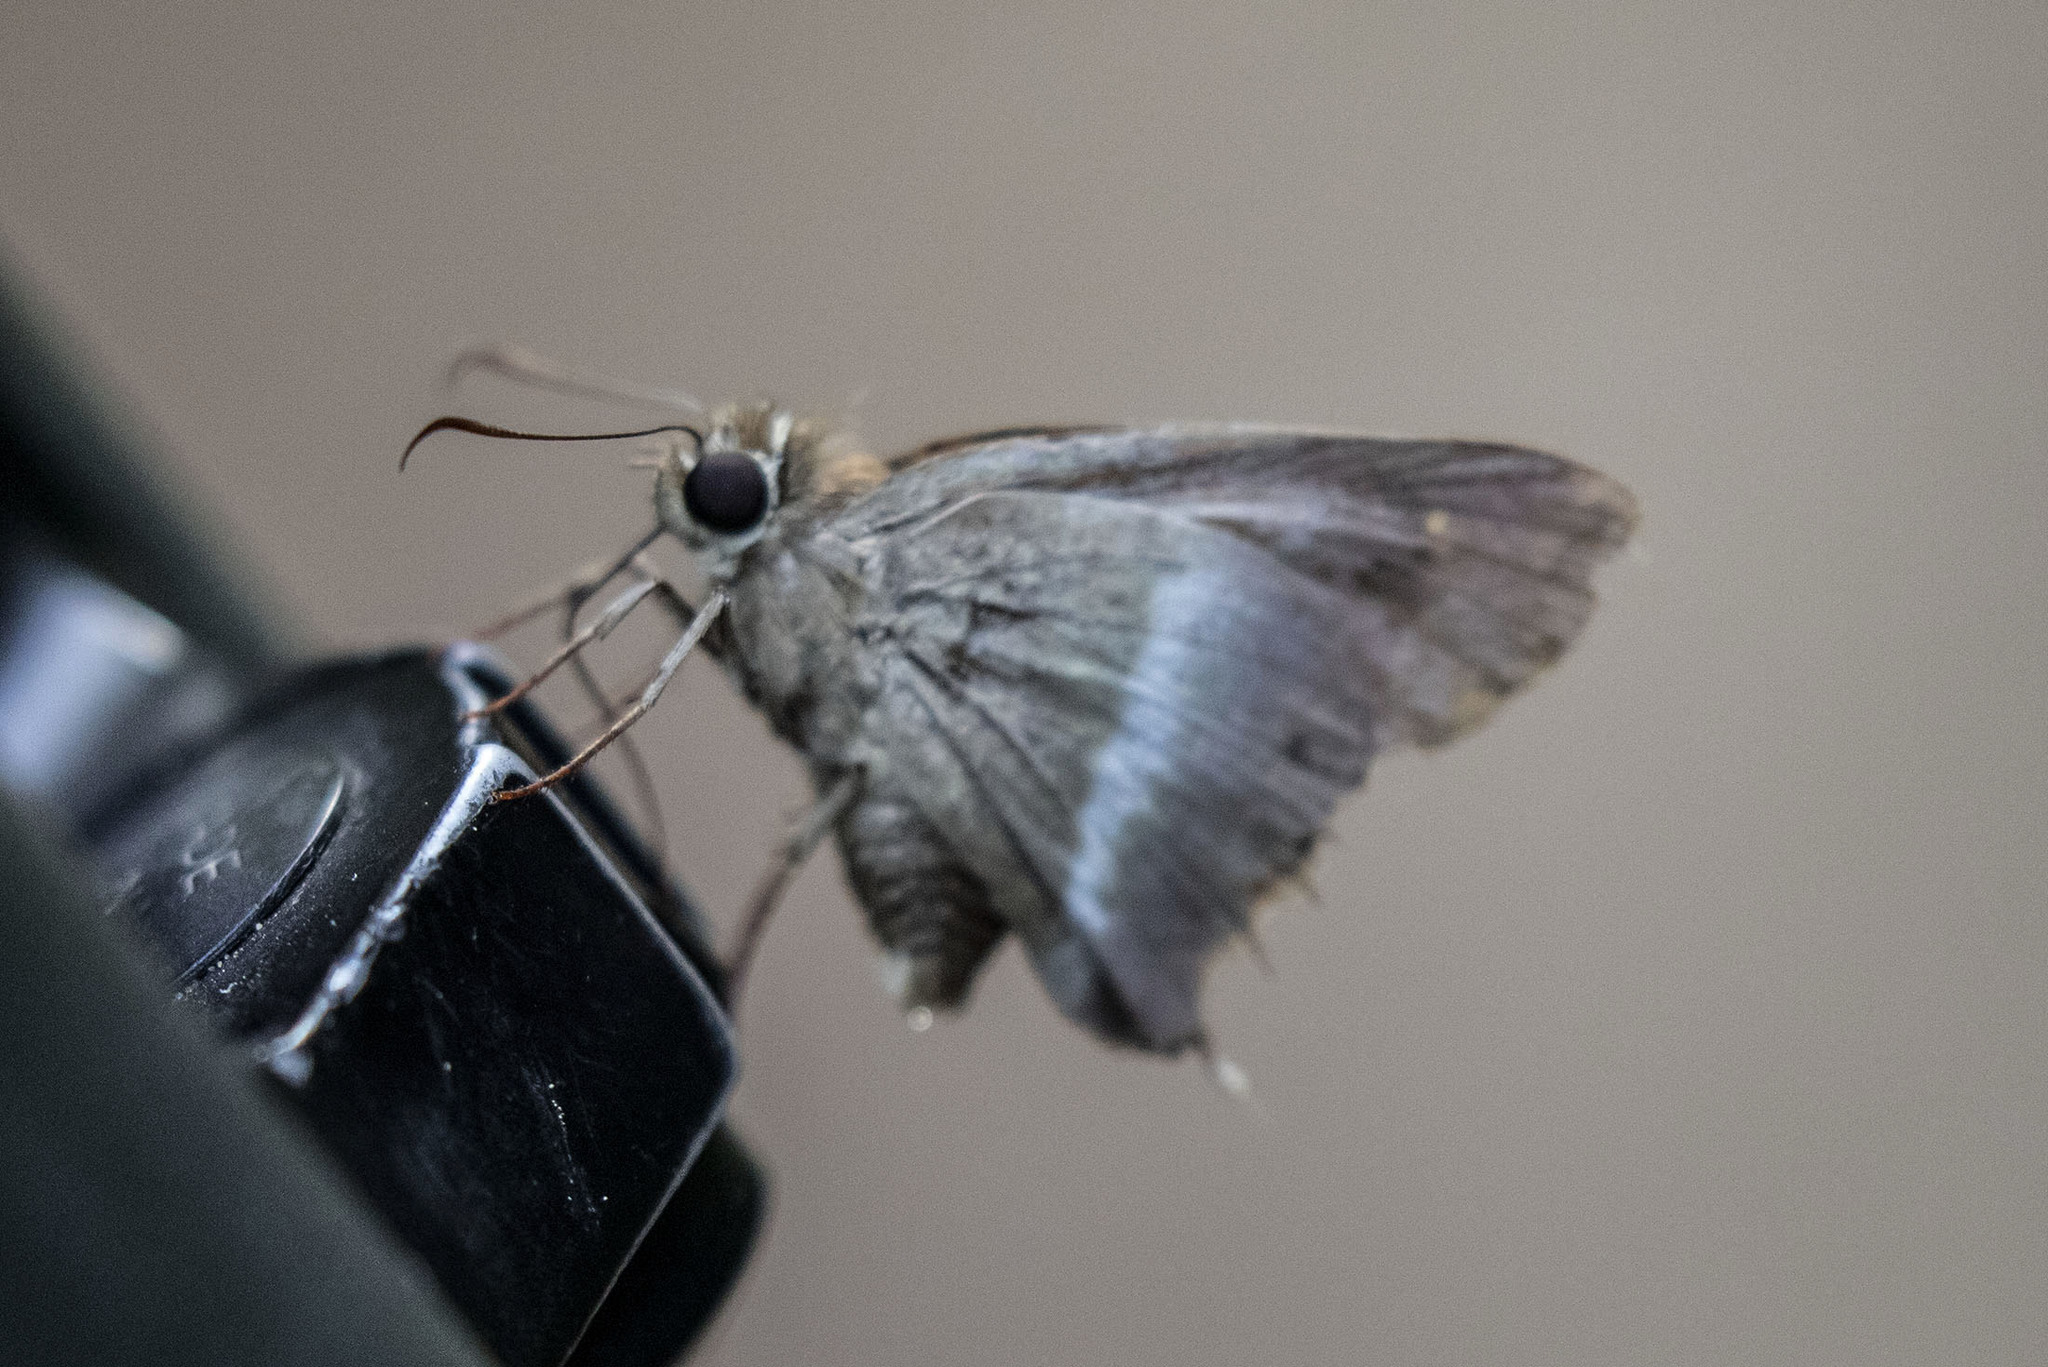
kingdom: Animalia
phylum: Arthropoda
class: Insecta
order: Lepidoptera
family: Hesperiidae
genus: Hasora
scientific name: Hasora chromus
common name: Common banded awl
